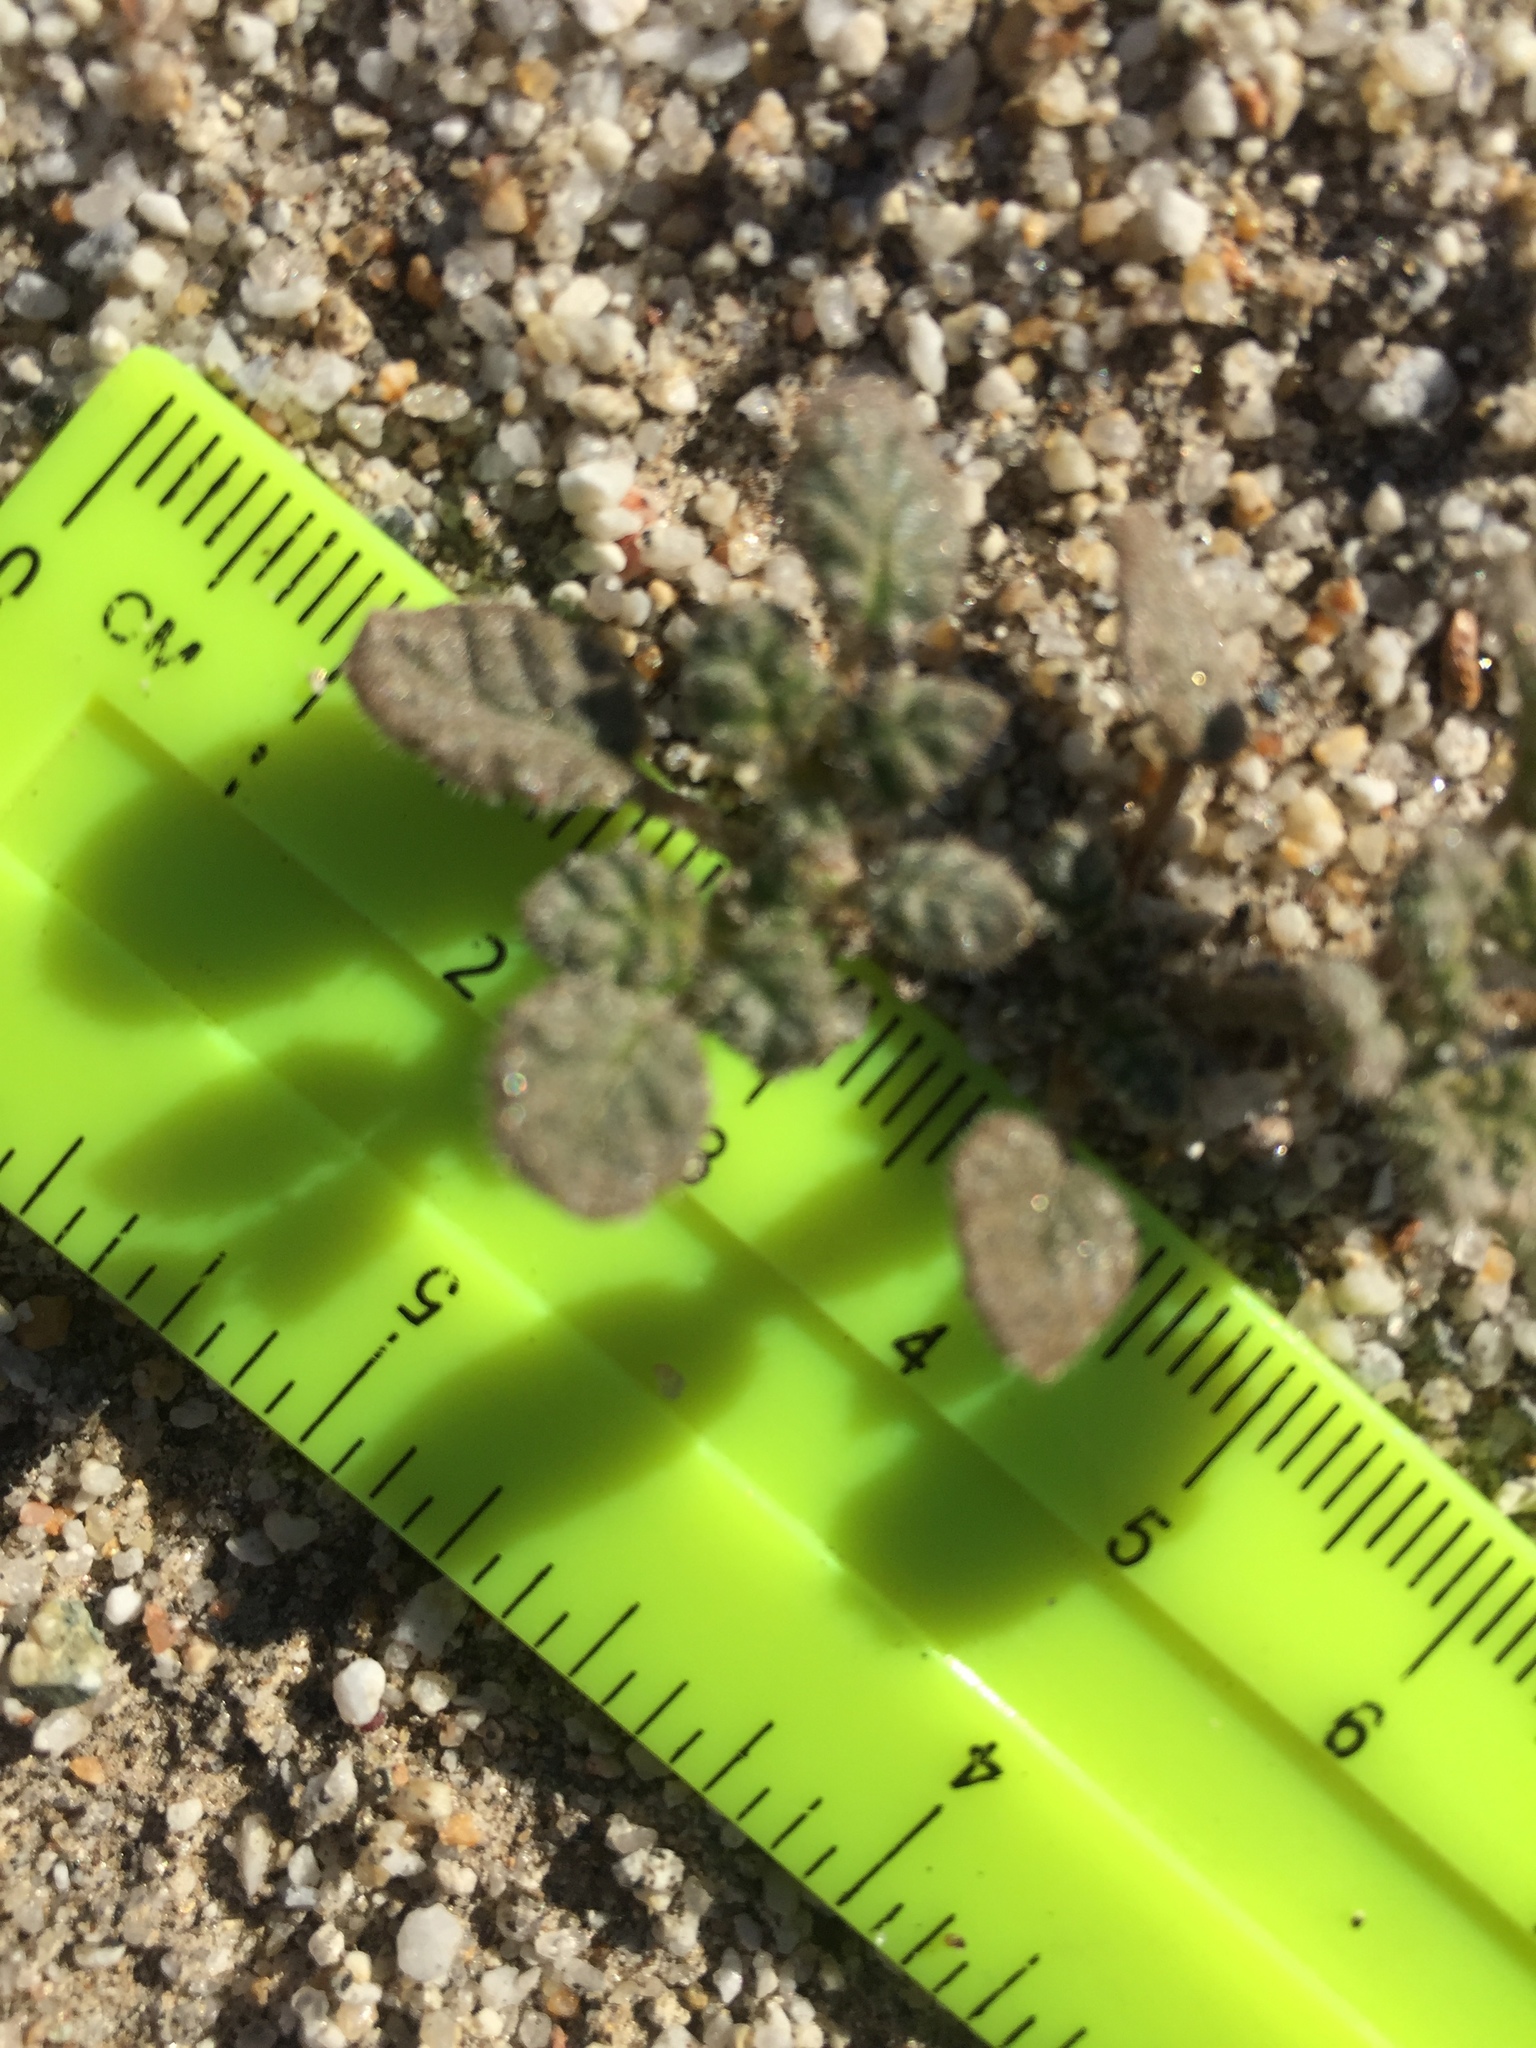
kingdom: Plantae
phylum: Tracheophyta
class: Magnoliopsida
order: Boraginales
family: Ehretiaceae
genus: Tiquilia
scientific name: Tiquilia palmeri
